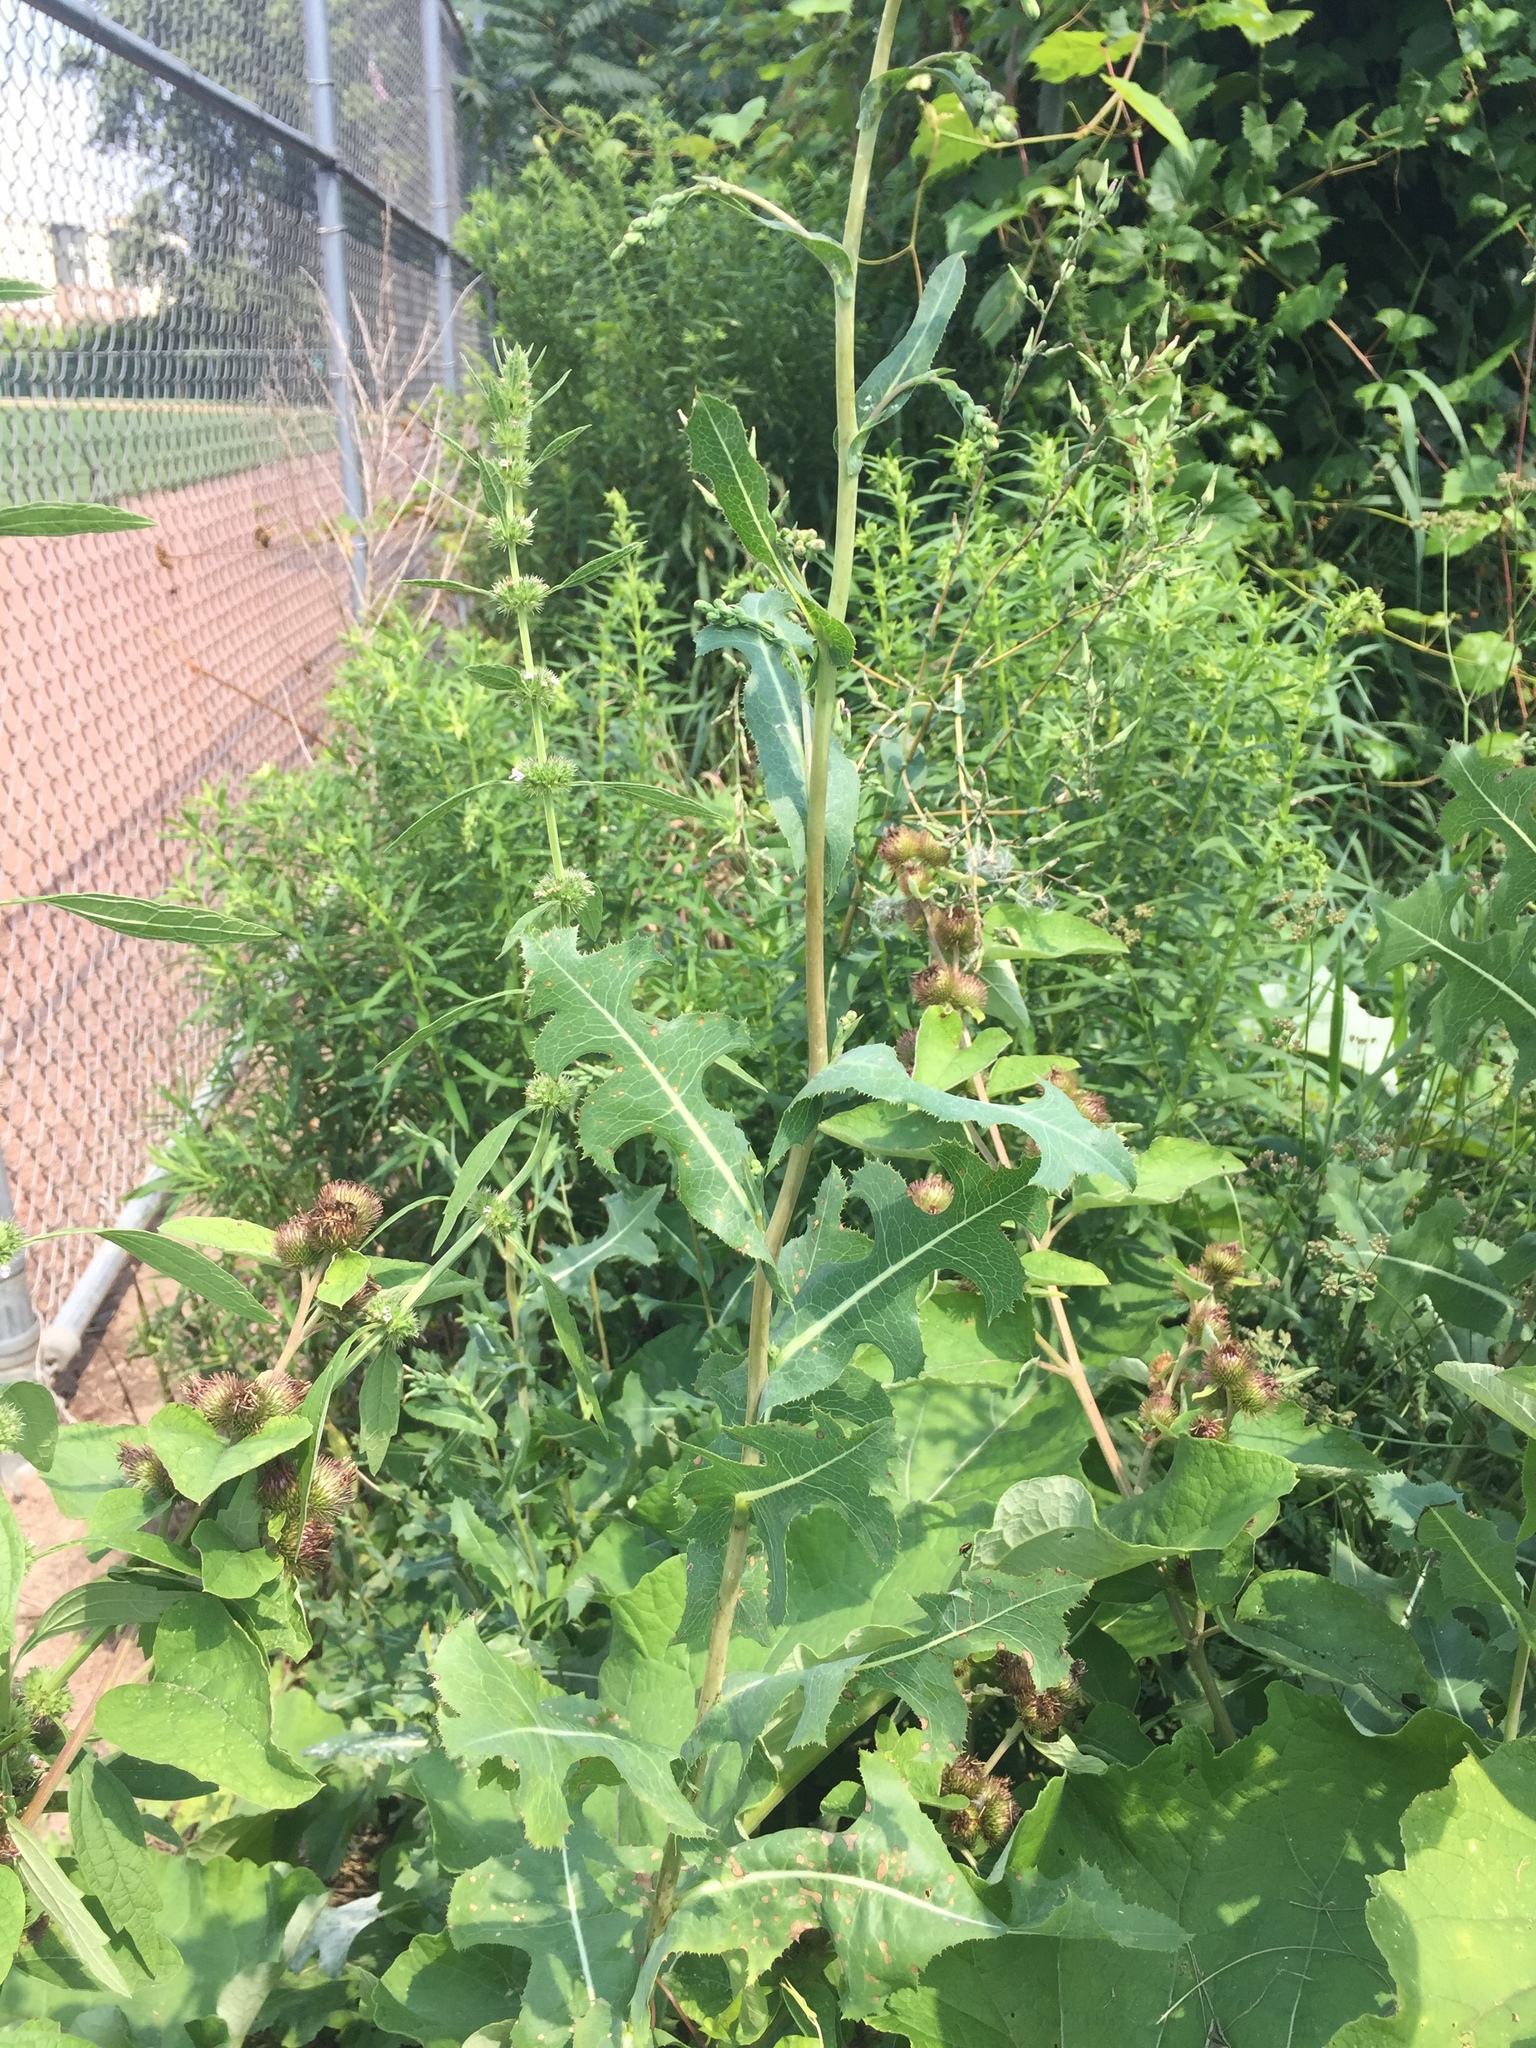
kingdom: Plantae
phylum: Tracheophyta
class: Magnoliopsida
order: Asterales
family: Asteraceae
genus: Lactuca
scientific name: Lactuca serriola
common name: Prickly lettuce
